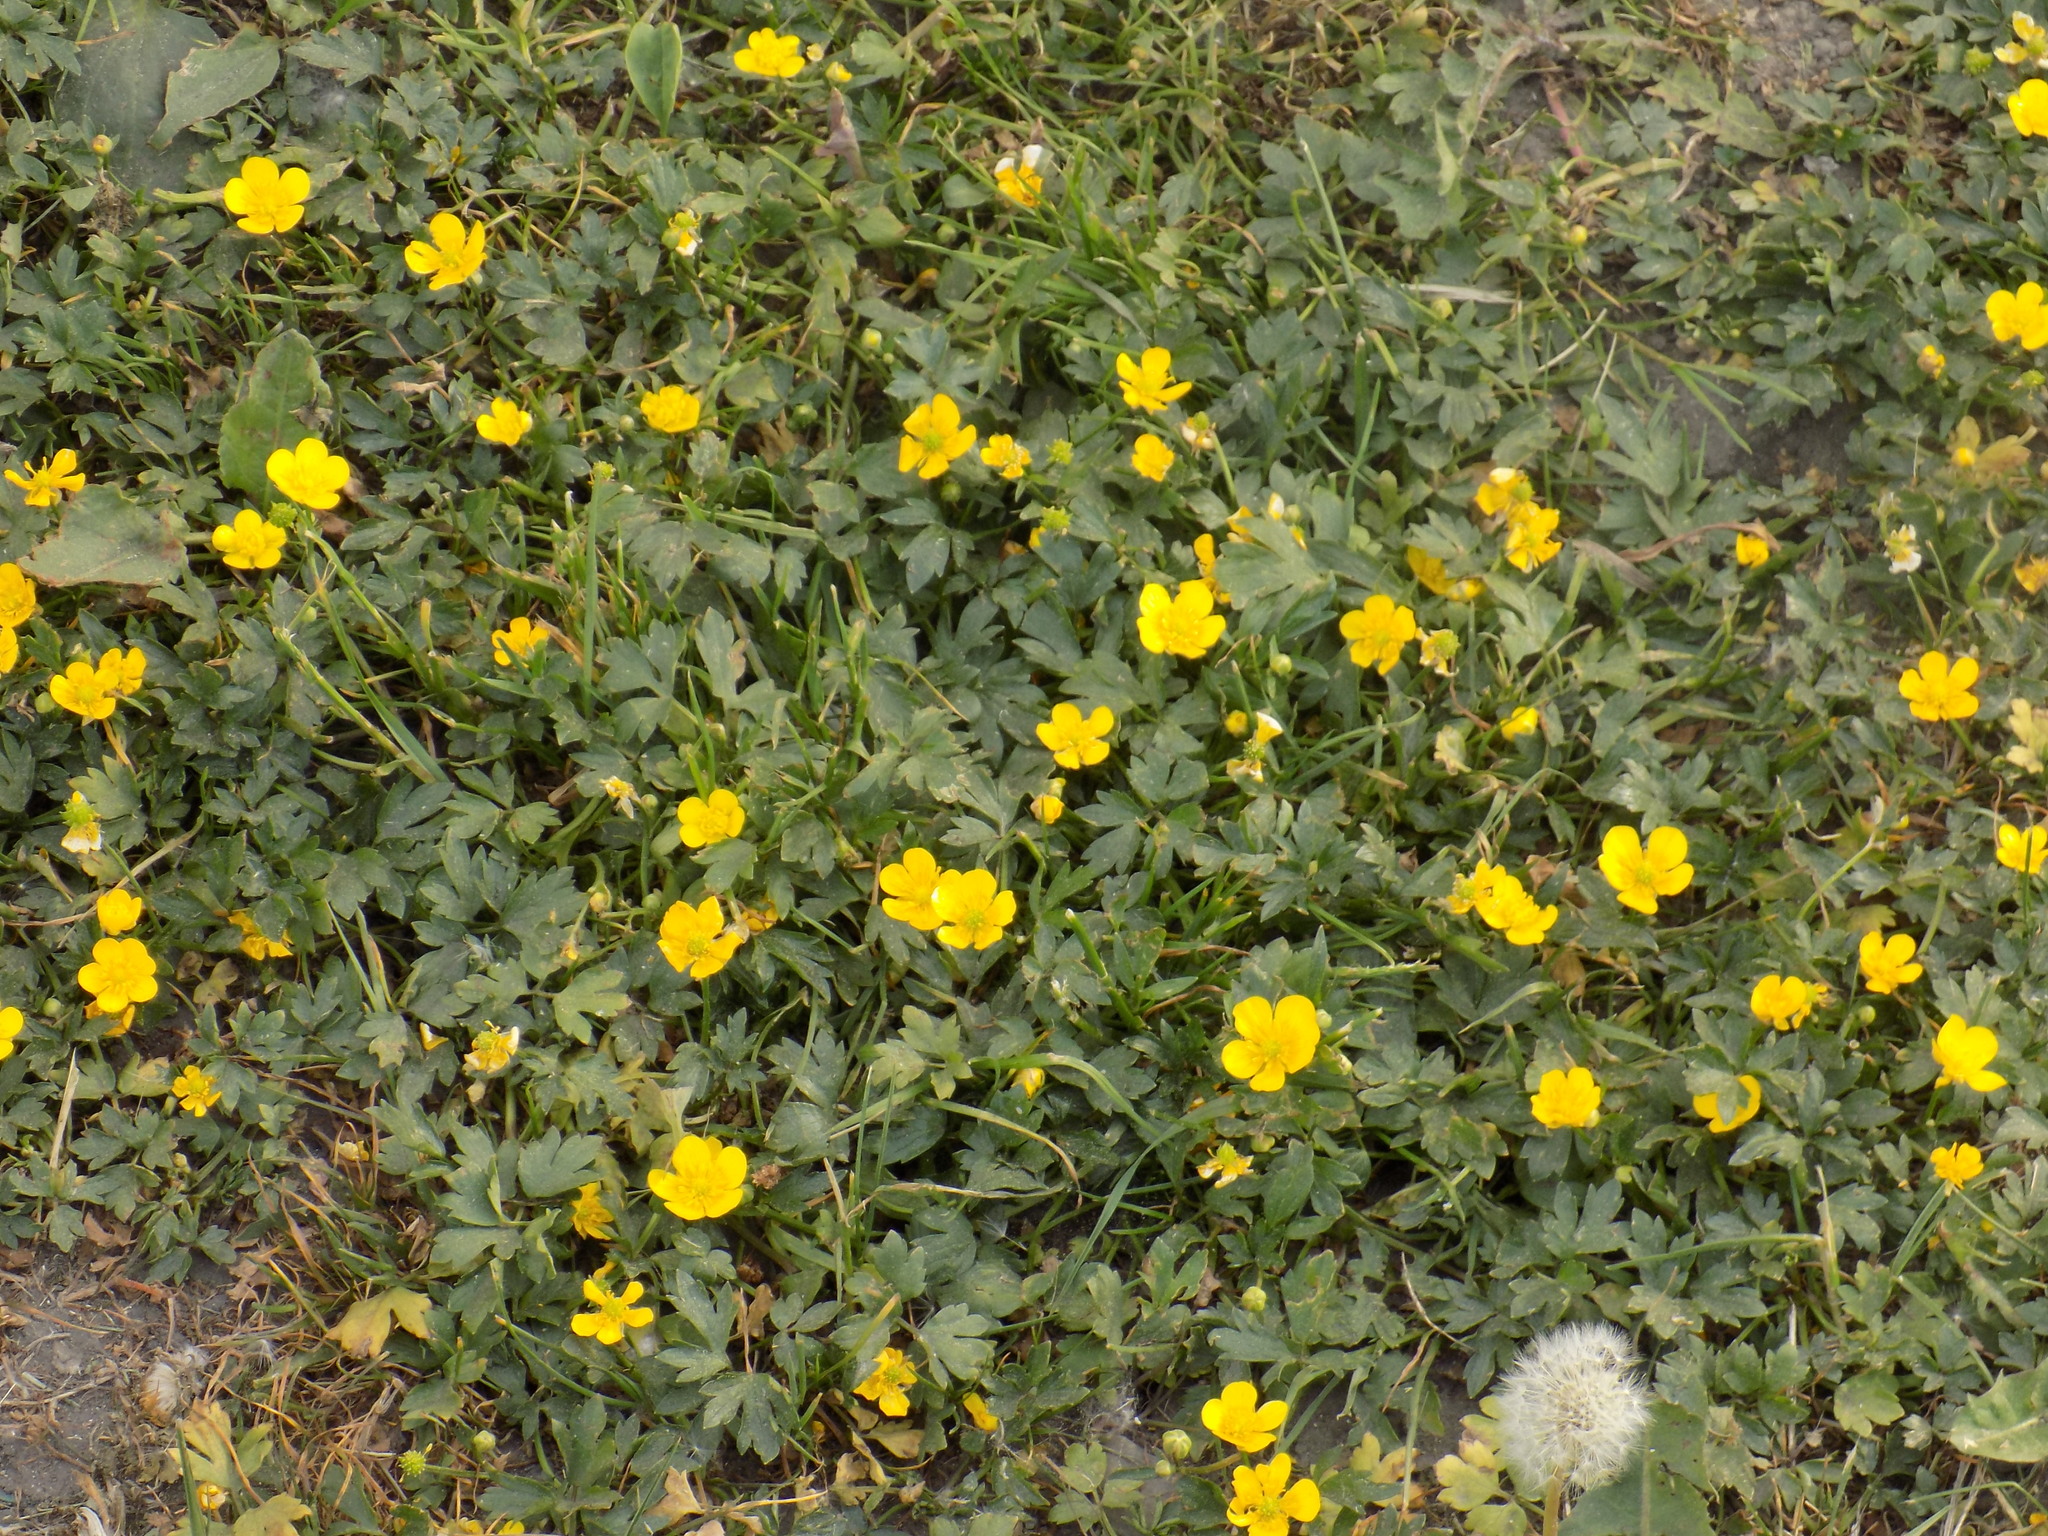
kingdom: Plantae
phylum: Tracheophyta
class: Magnoliopsida
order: Ranunculales
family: Ranunculaceae
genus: Ranunculus
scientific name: Ranunculus repens
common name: Creeping buttercup
